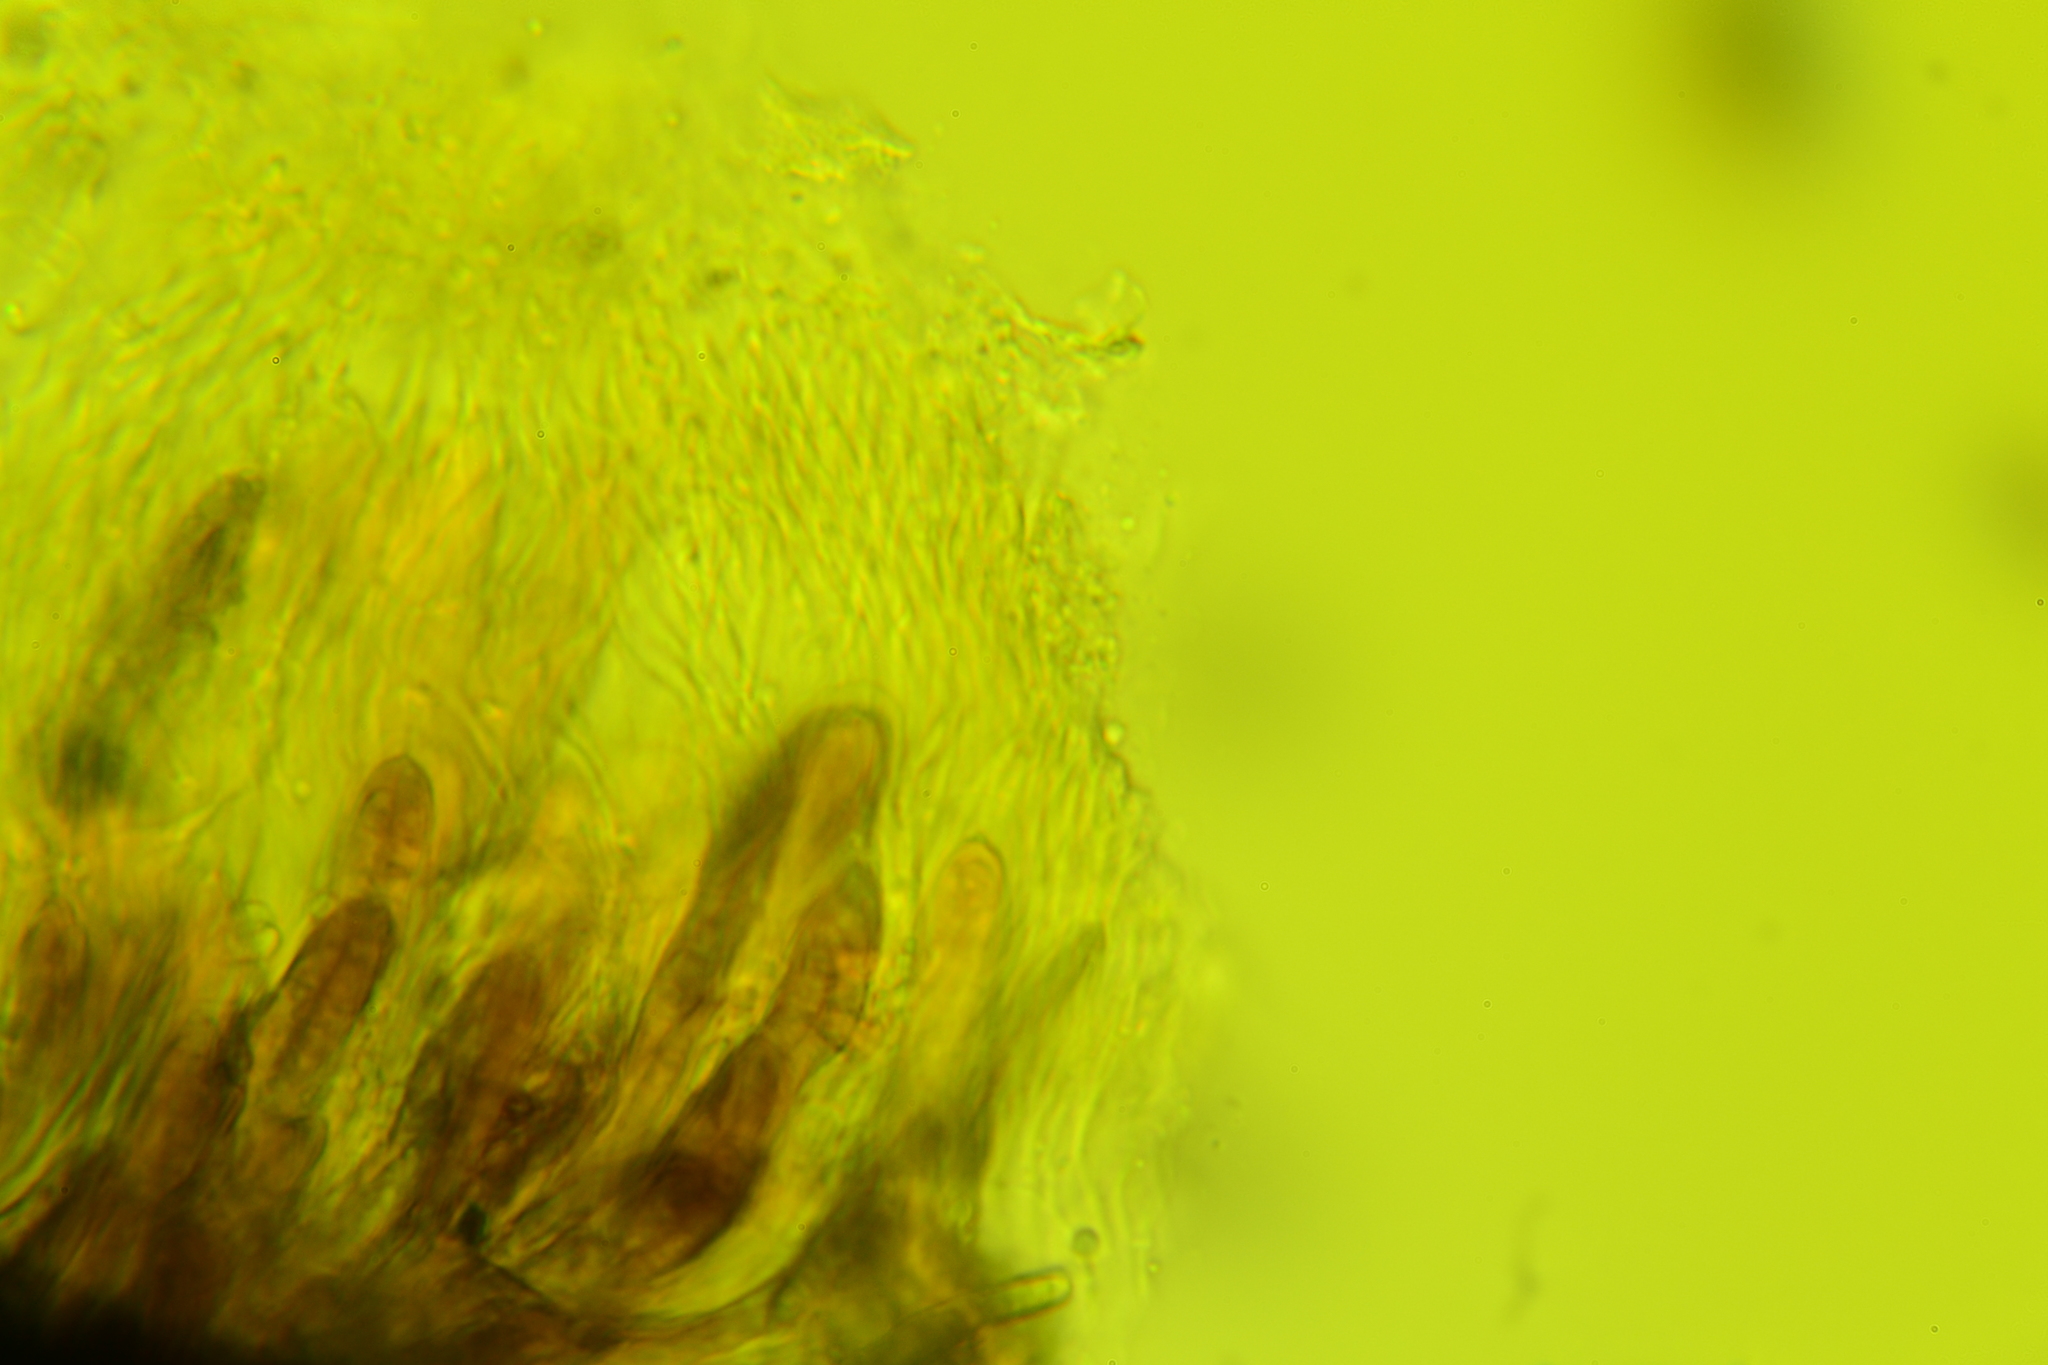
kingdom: Fungi
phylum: Ascomycota
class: Dothideomycetes
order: Pleosporales
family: Leptosphaeriaceae
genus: Leptosphaeria
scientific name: Leptosphaeria acuta
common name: Nettle rash
